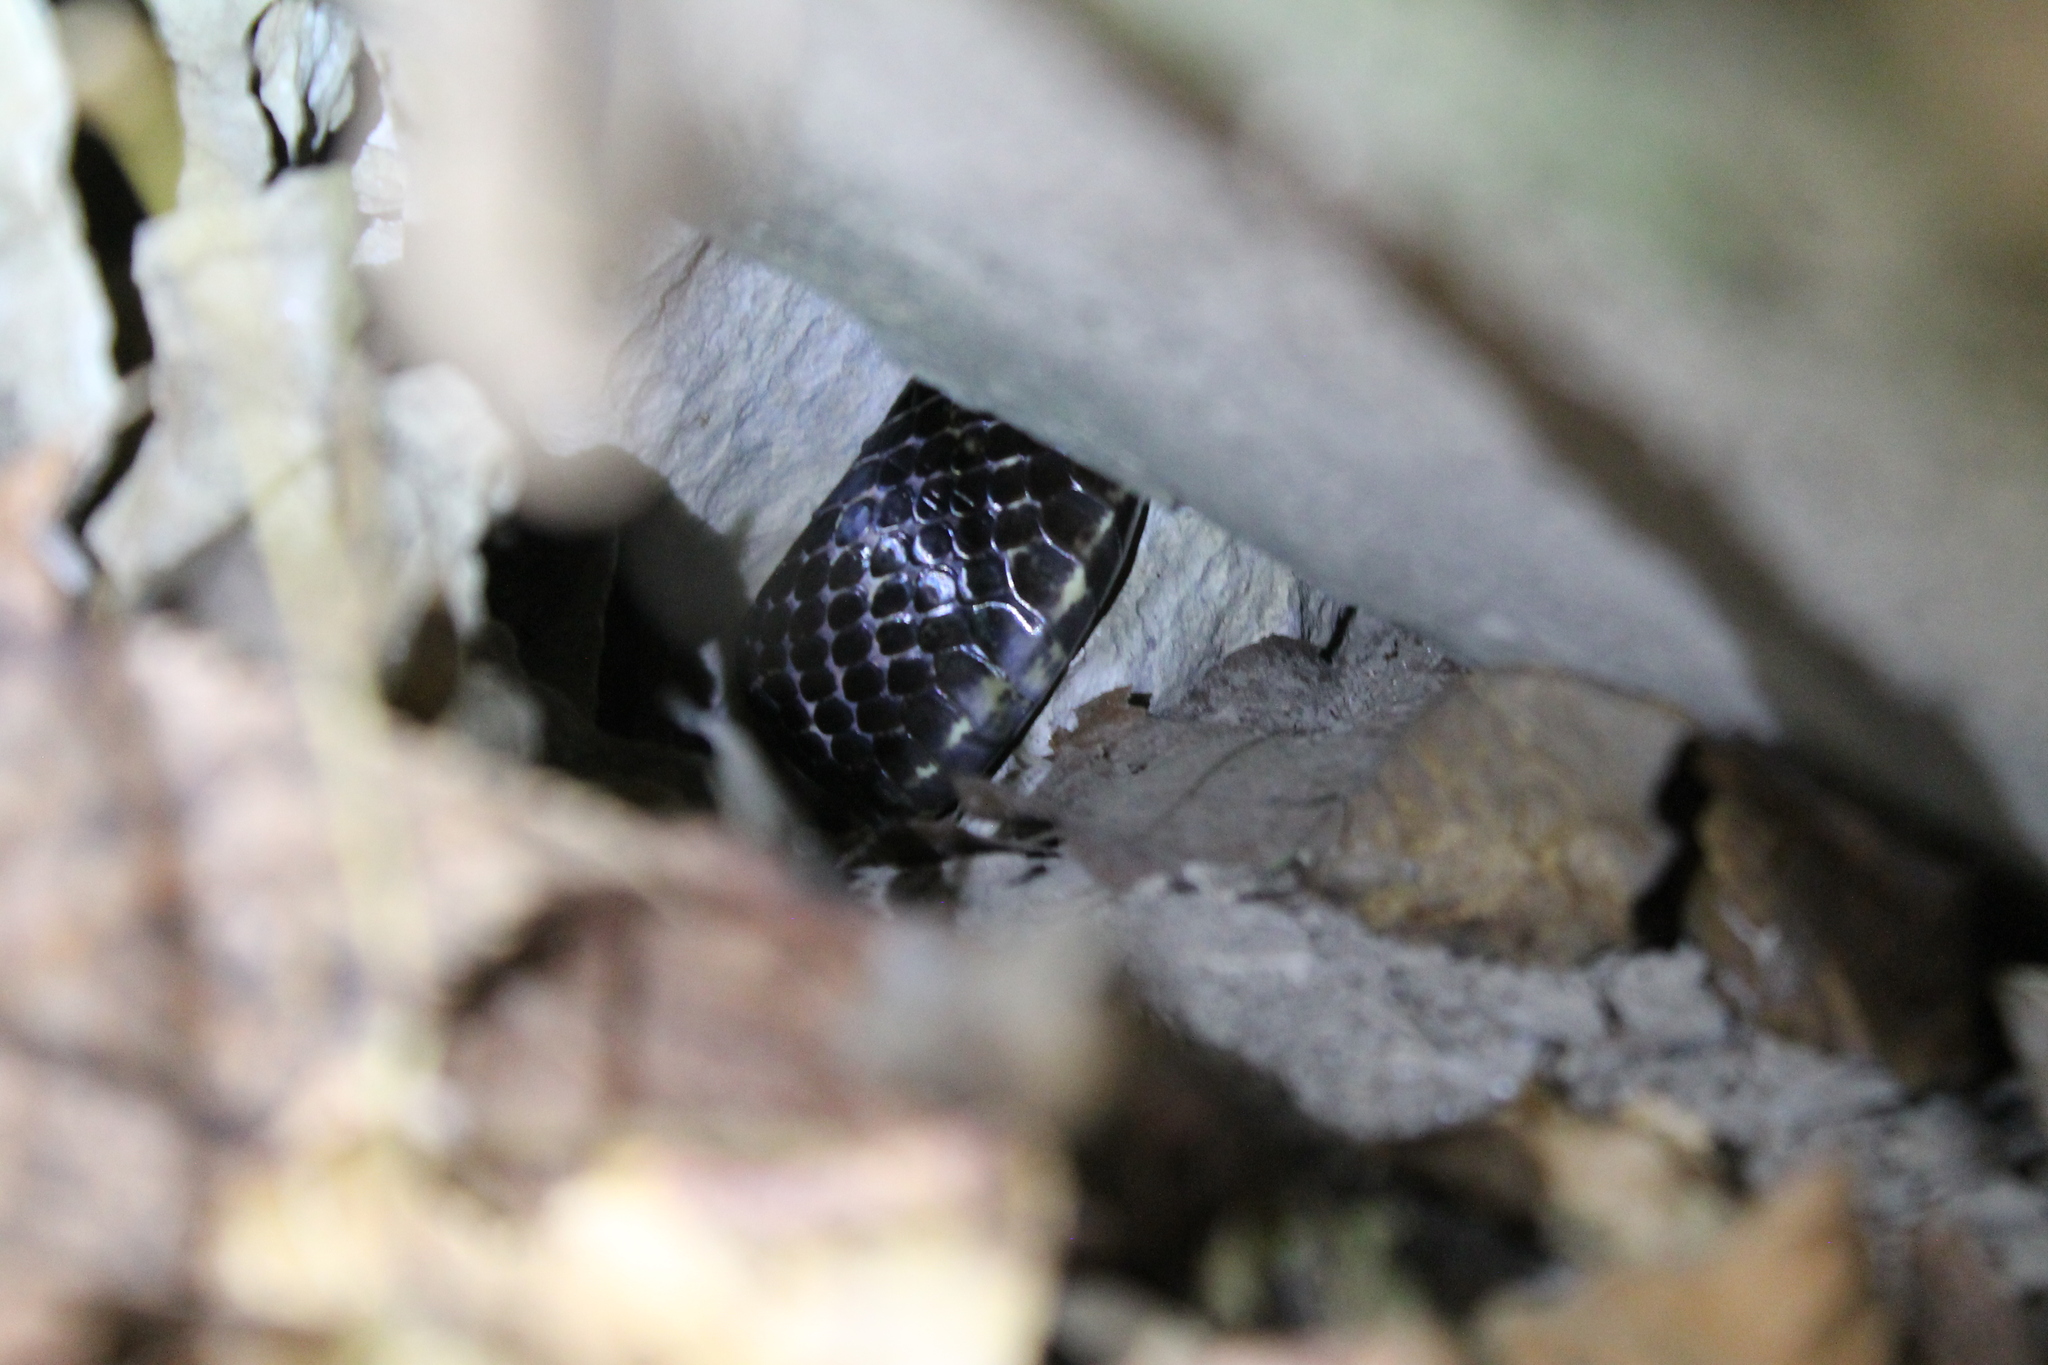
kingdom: Animalia
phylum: Chordata
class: Squamata
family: Colubridae
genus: Pantherophis
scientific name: Pantherophis spiloides
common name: Gray rat snake
